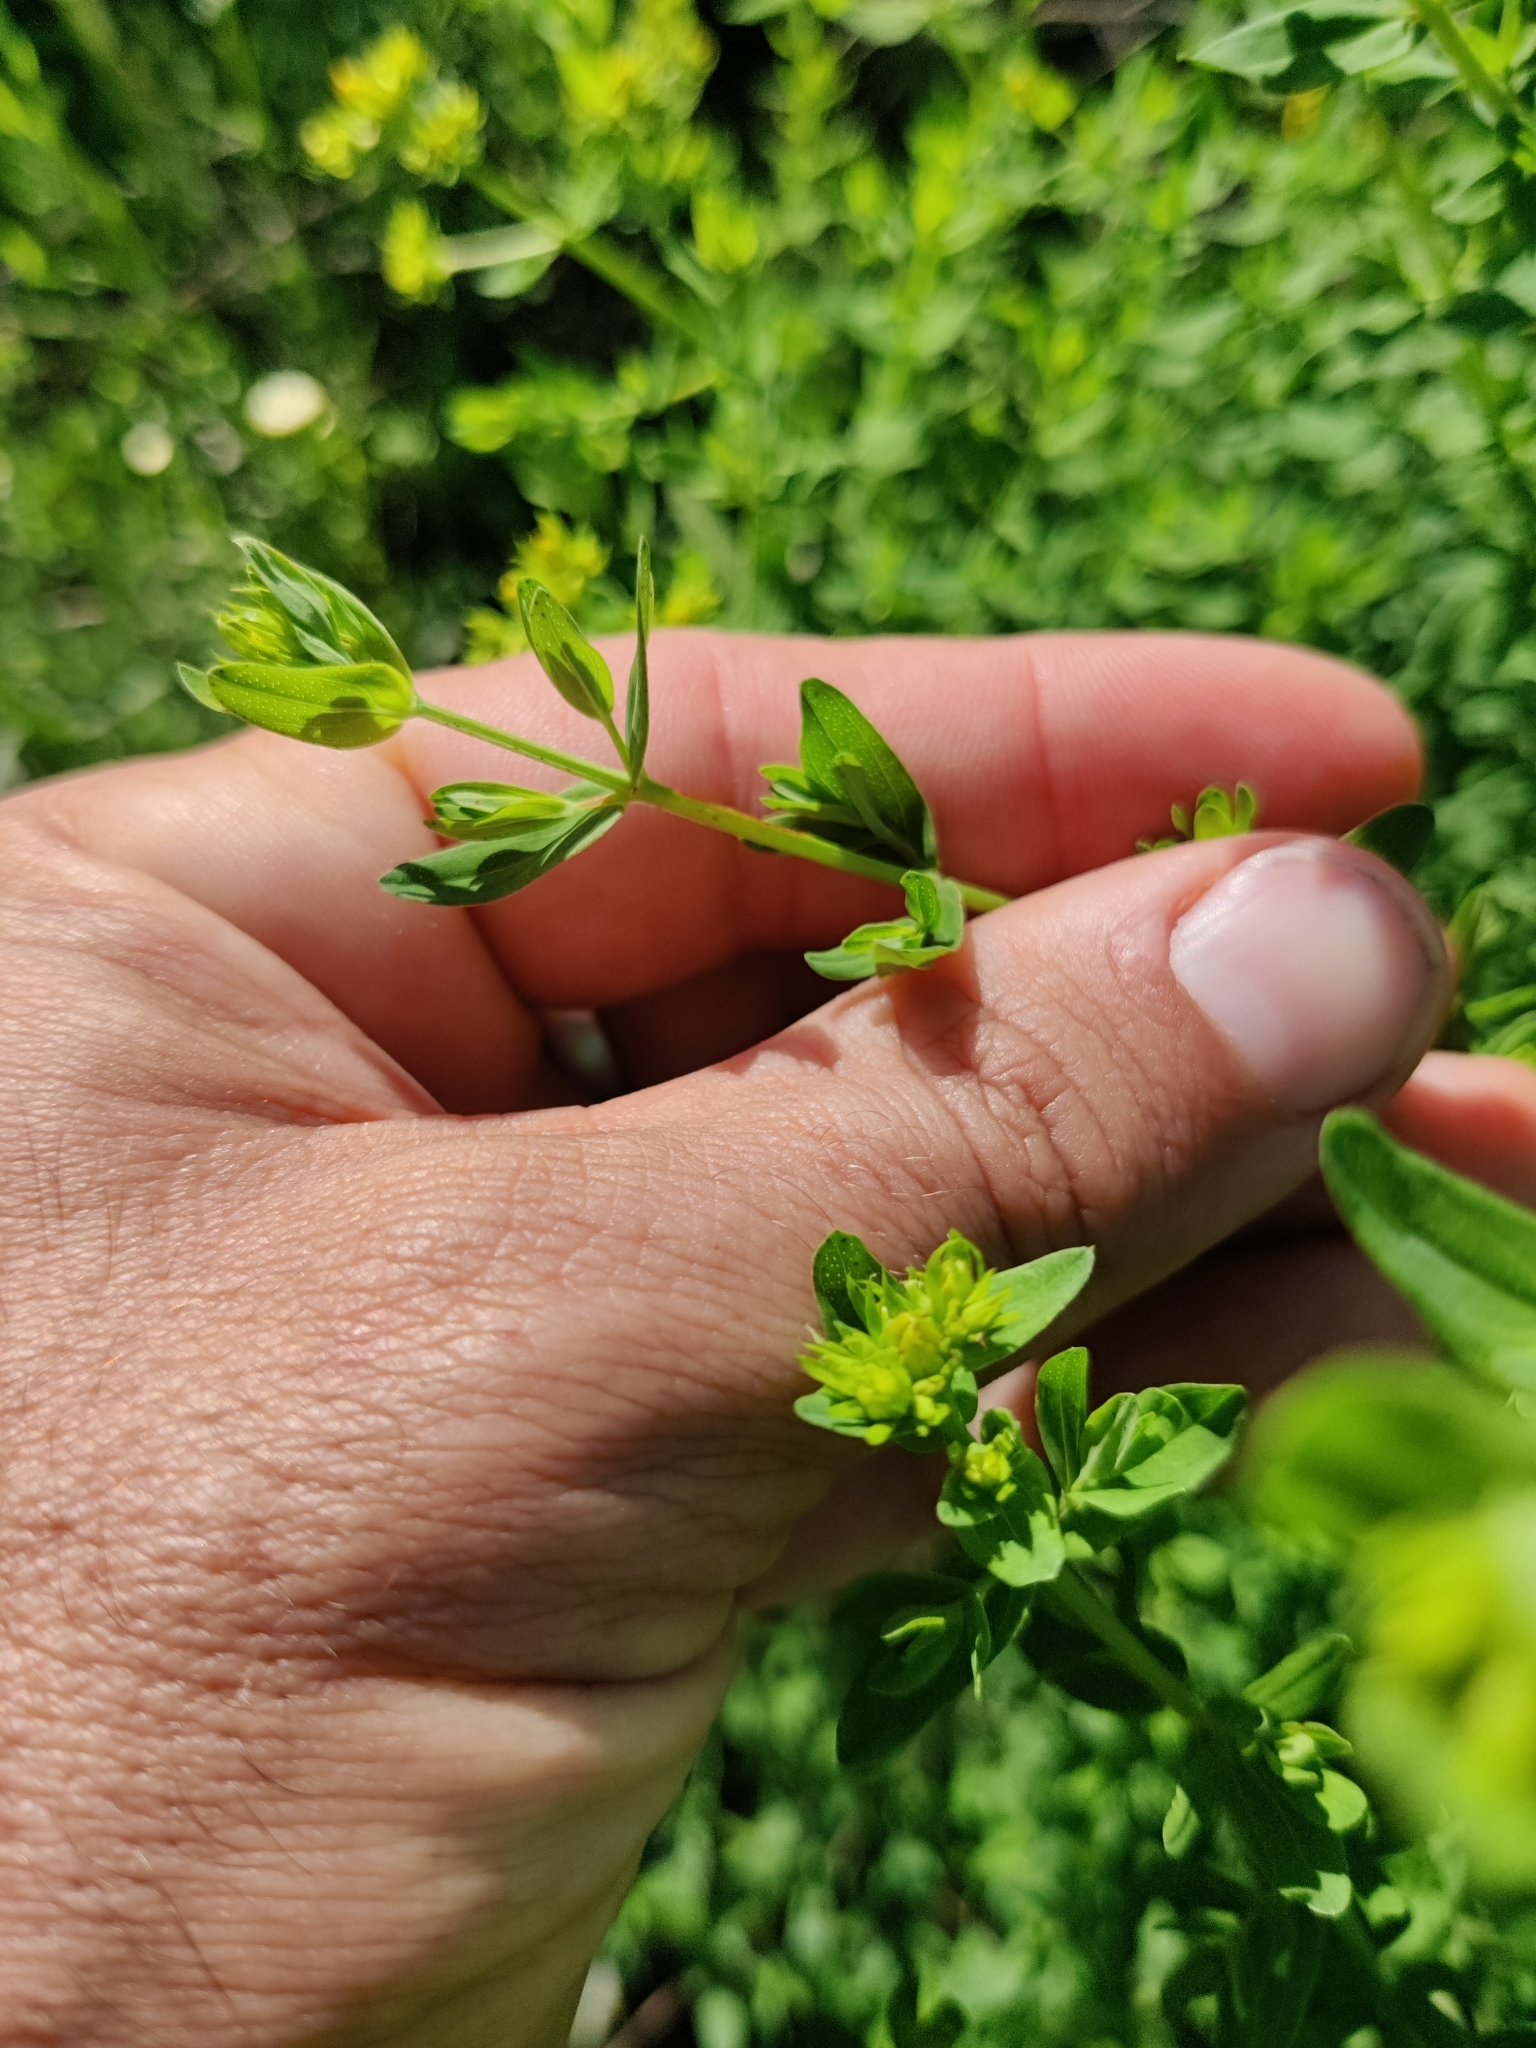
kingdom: Plantae
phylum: Tracheophyta
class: Magnoliopsida
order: Malpighiales
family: Hypericaceae
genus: Hypericum
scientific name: Hypericum perforatum
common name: Common st. johnswort
